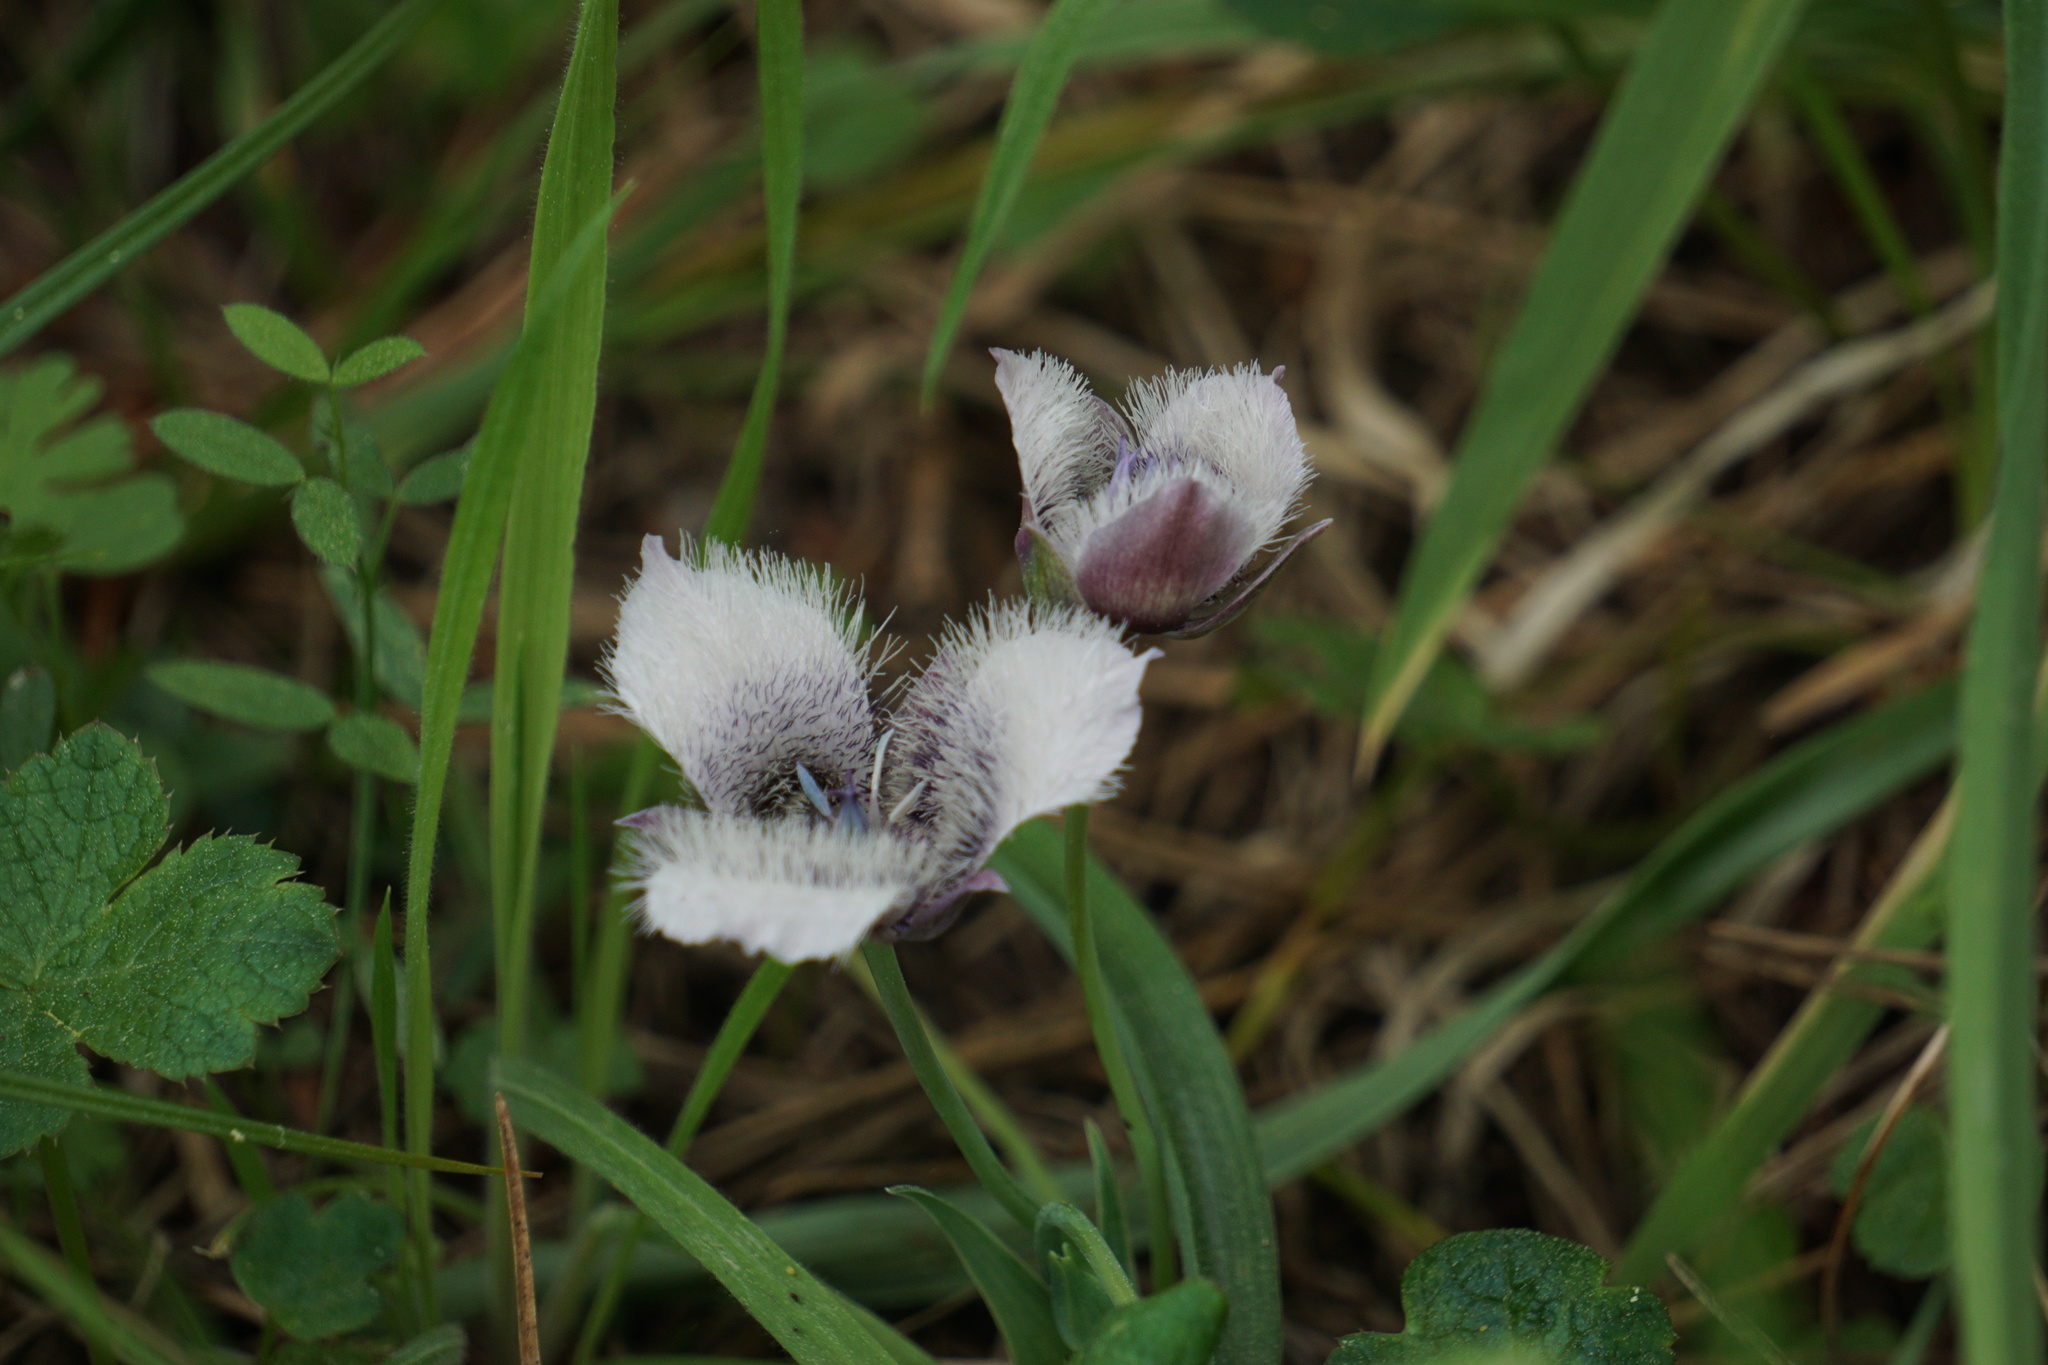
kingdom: Plantae
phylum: Tracheophyta
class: Liliopsida
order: Liliales
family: Liliaceae
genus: Calochortus
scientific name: Calochortus tolmiei
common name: Pussy-ears
